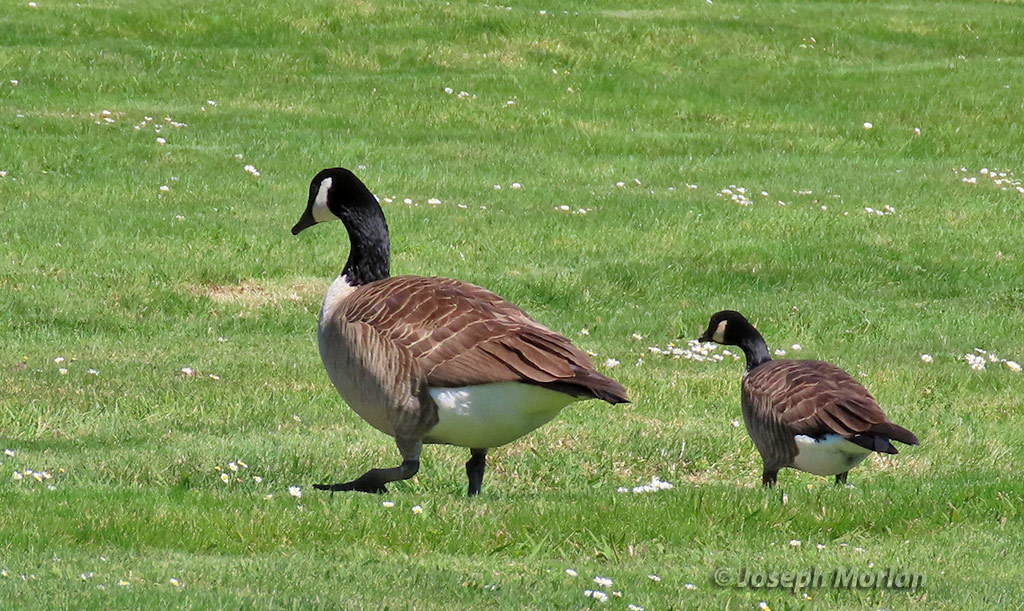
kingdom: Animalia
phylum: Chordata
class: Aves
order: Anseriformes
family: Anatidae
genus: Branta
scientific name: Branta canadensis
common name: Canada goose
